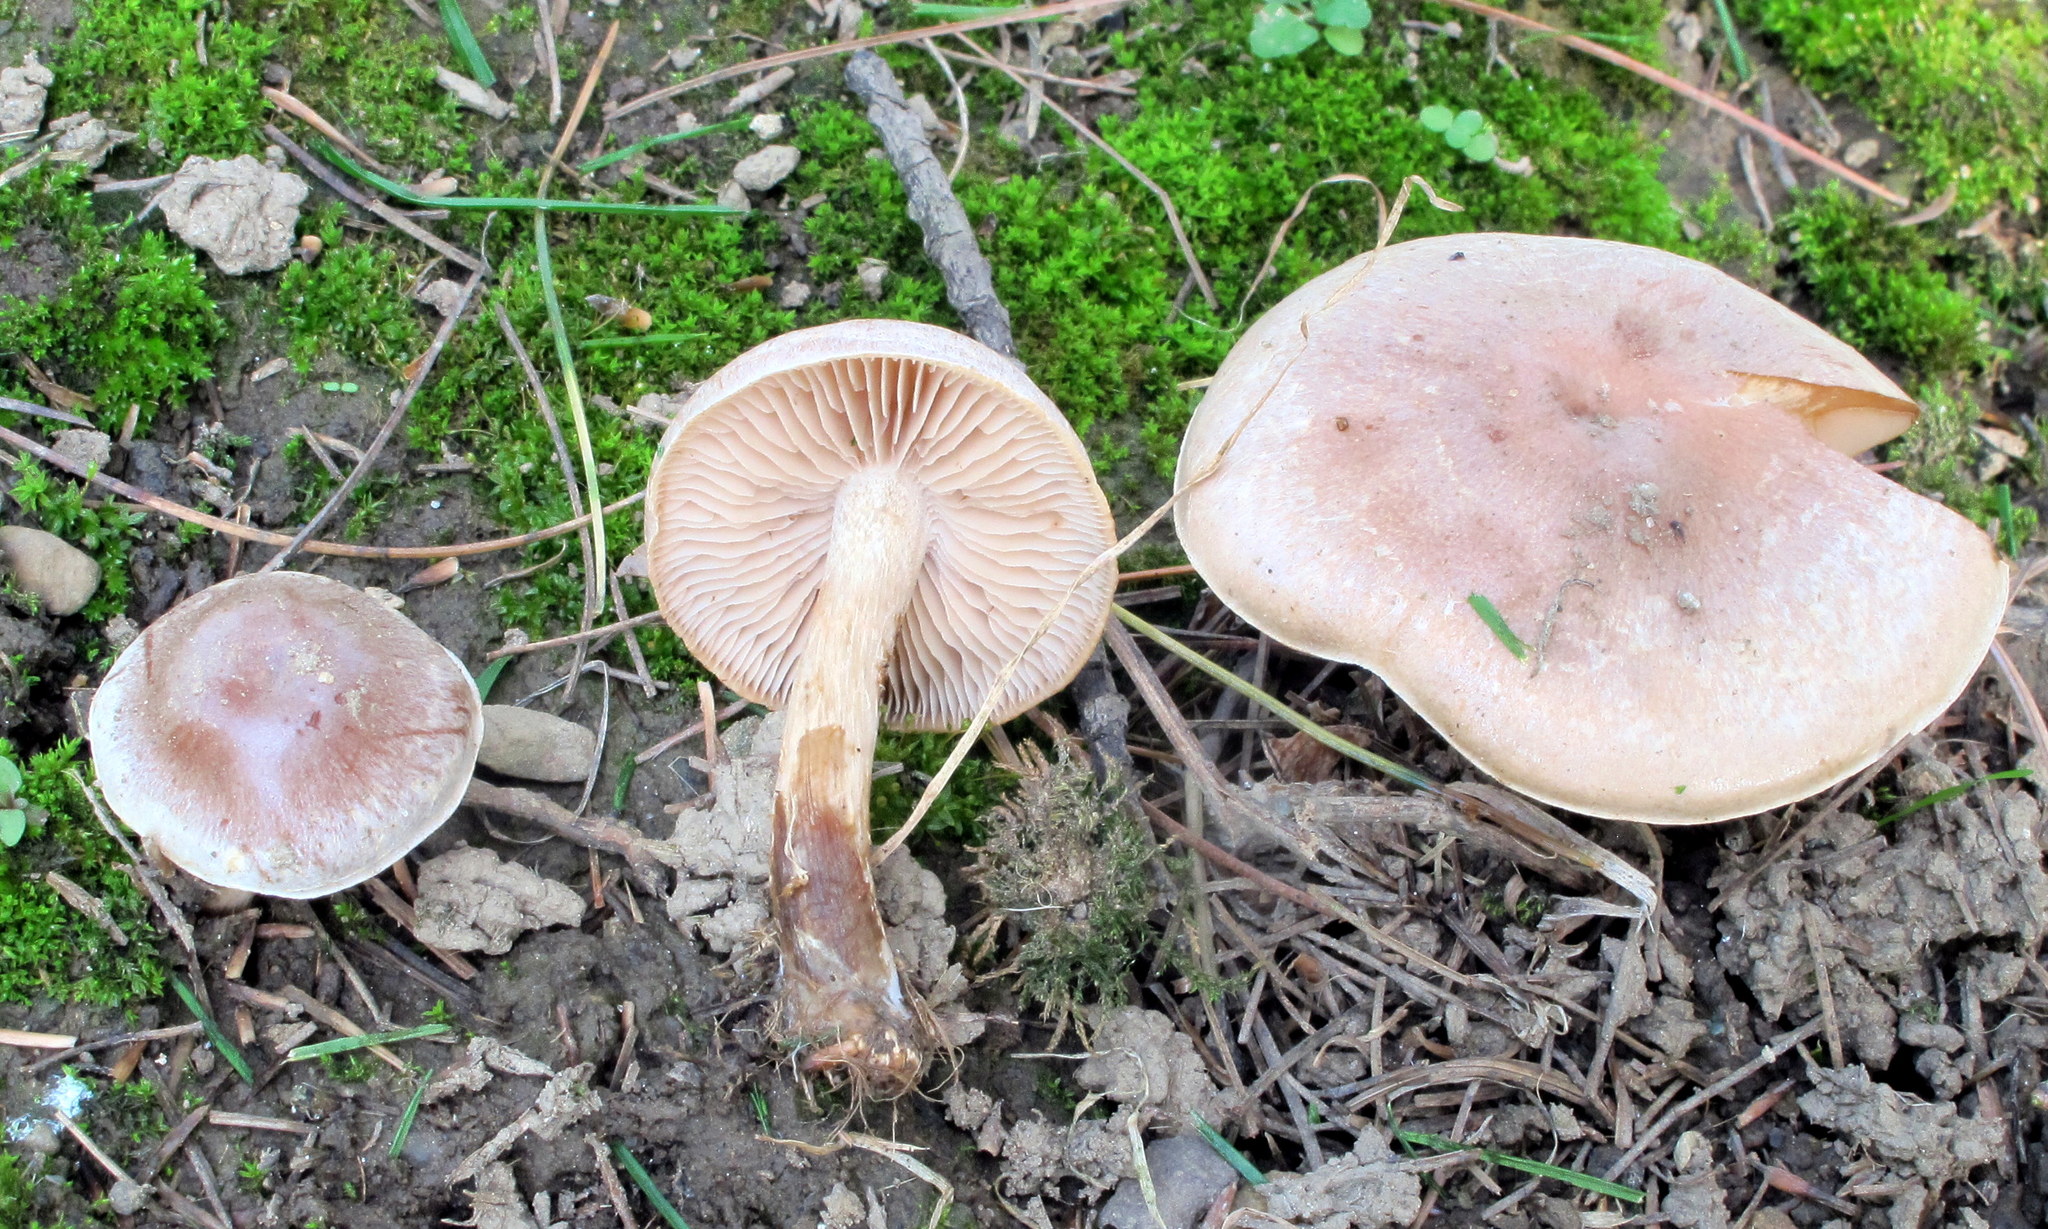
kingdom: Fungi
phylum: Basidiomycota
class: Agaricomycetes
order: Agaricales
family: Hymenogastraceae
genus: Hebeloma
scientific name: Hebeloma mesophaeum
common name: Veiled poisonpie
